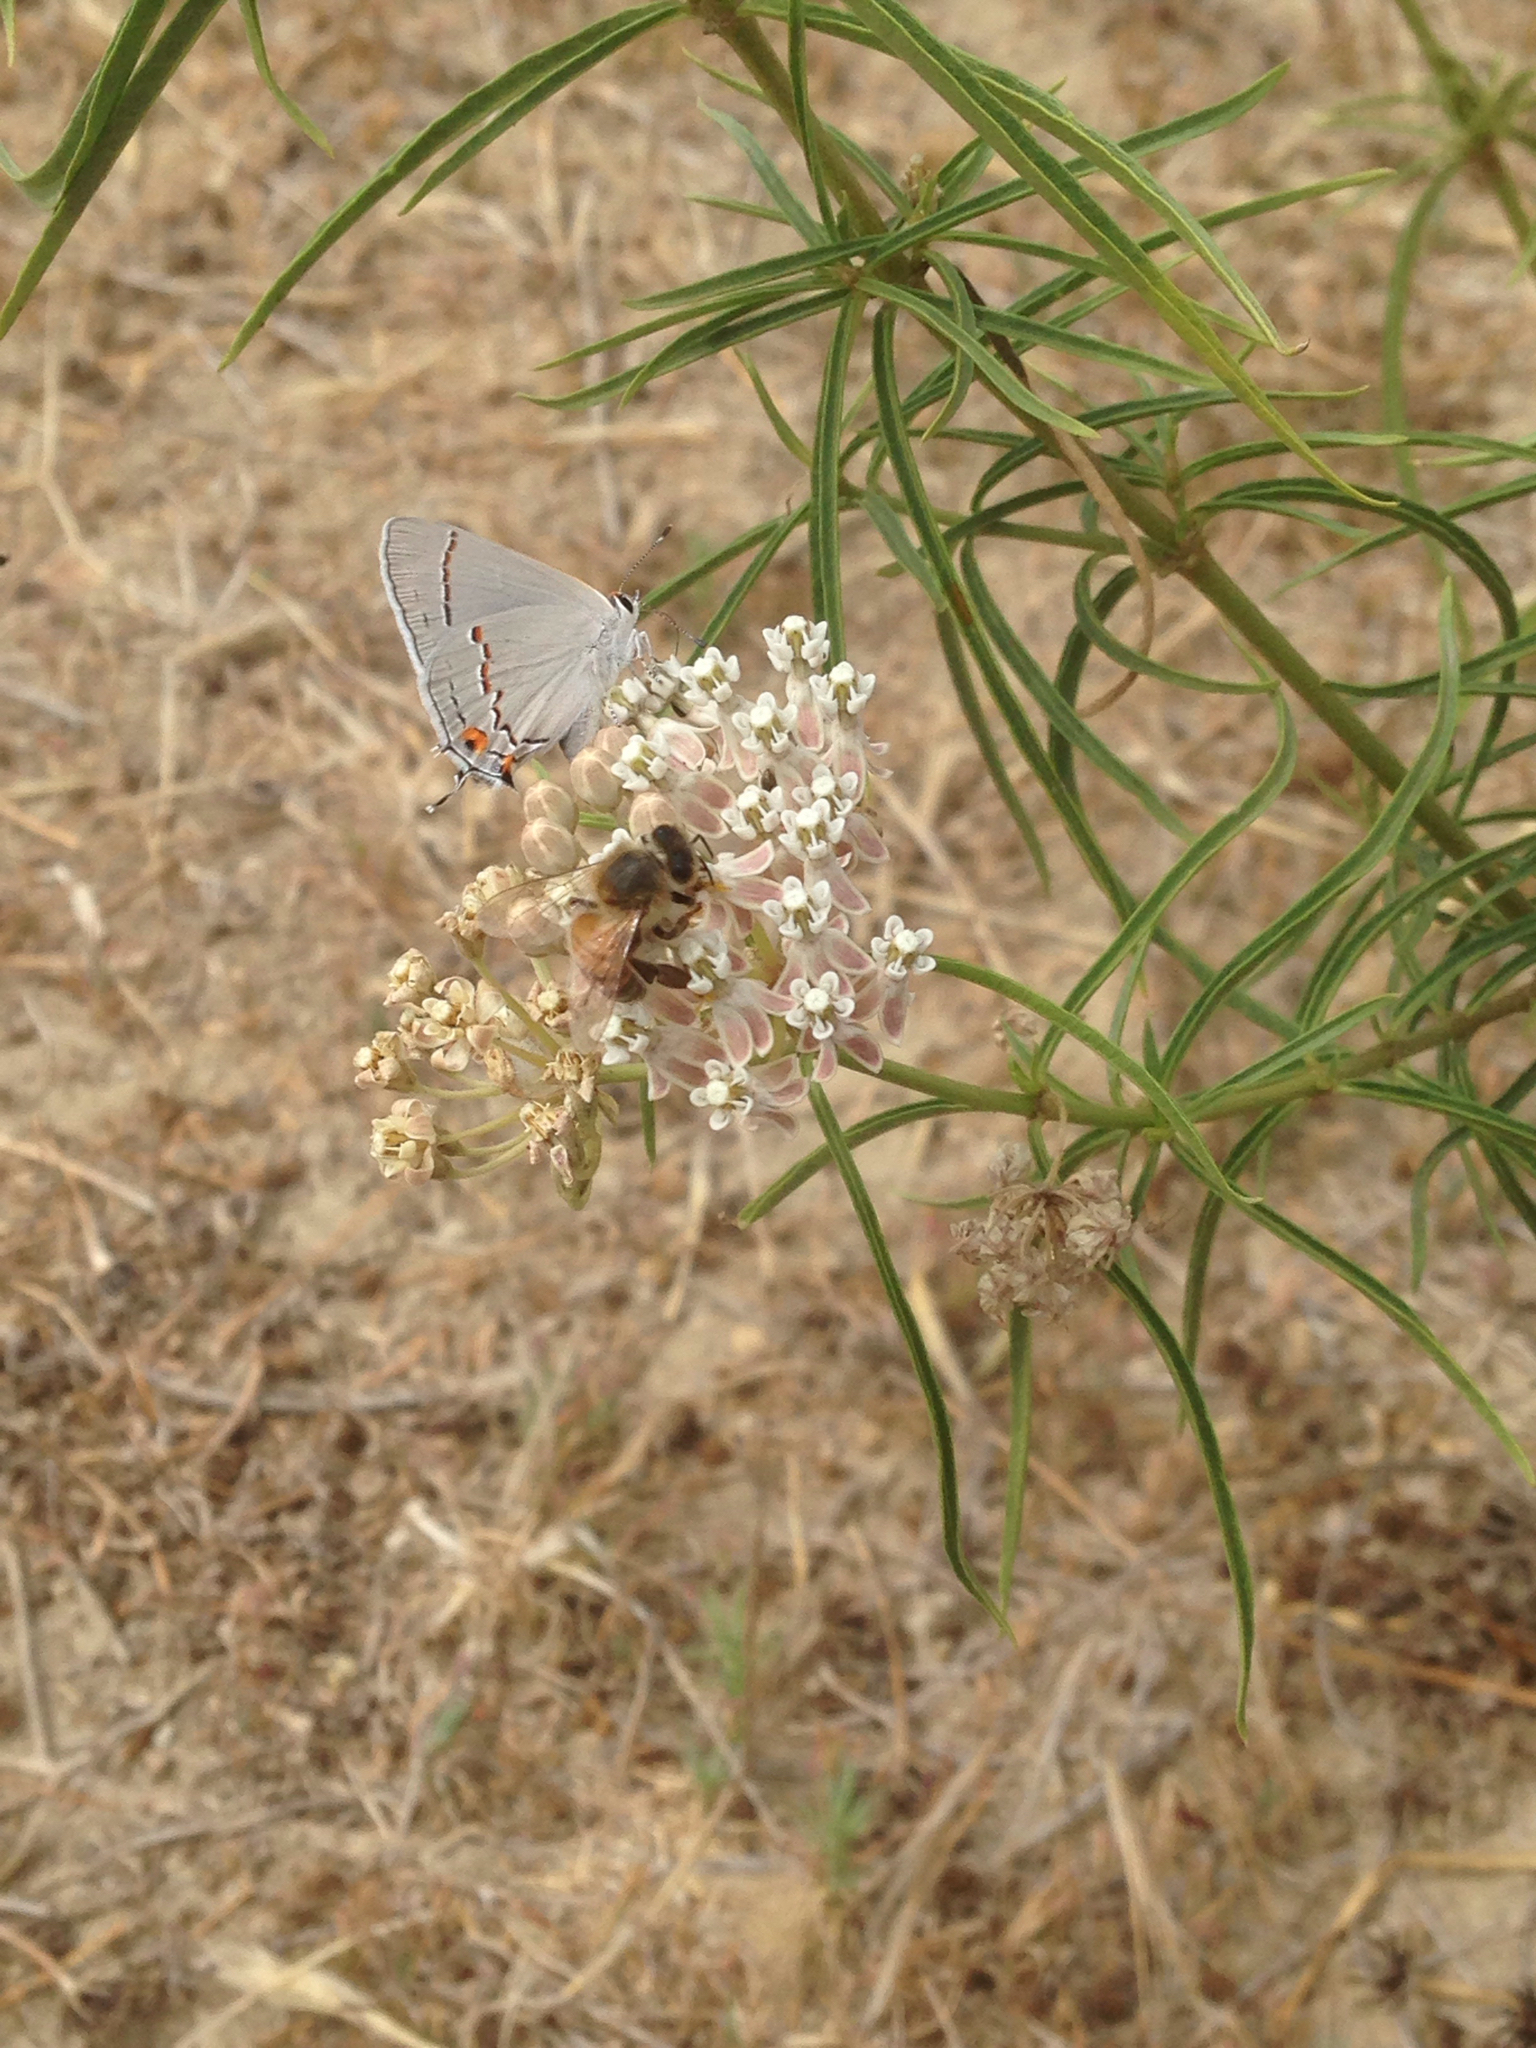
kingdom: Animalia
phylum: Arthropoda
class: Insecta
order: Hymenoptera
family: Apidae
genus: Apis
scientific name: Apis mellifera
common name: Honey bee
